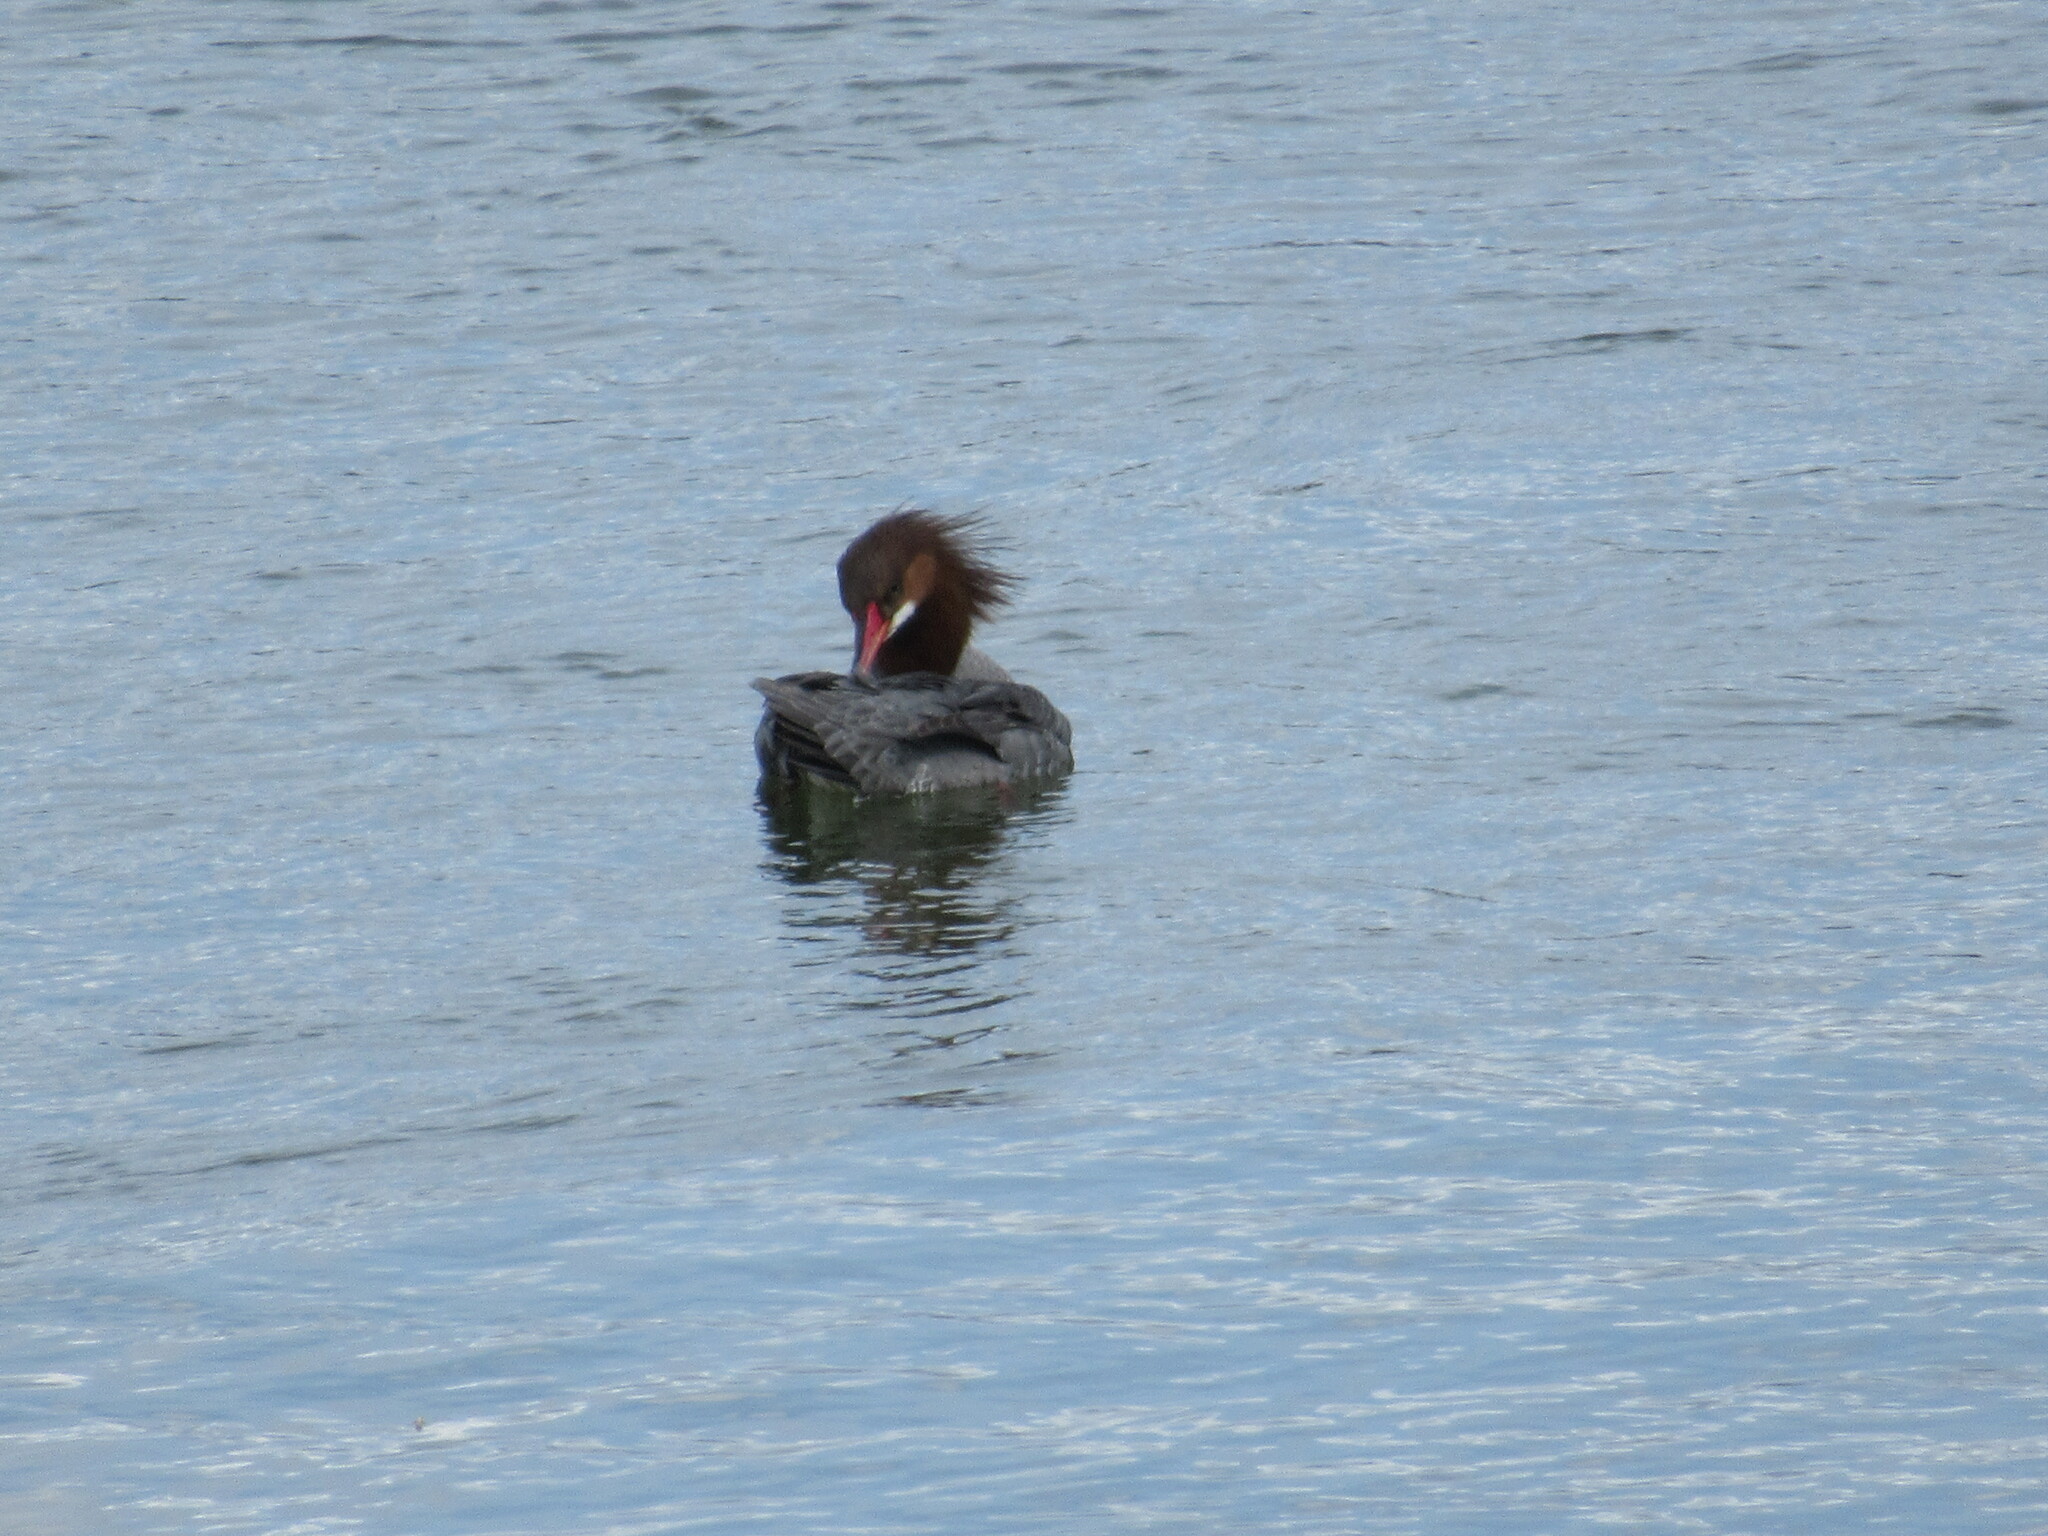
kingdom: Animalia
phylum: Chordata
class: Aves
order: Anseriformes
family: Anatidae
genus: Mergus
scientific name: Mergus merganser
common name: Common merganser
